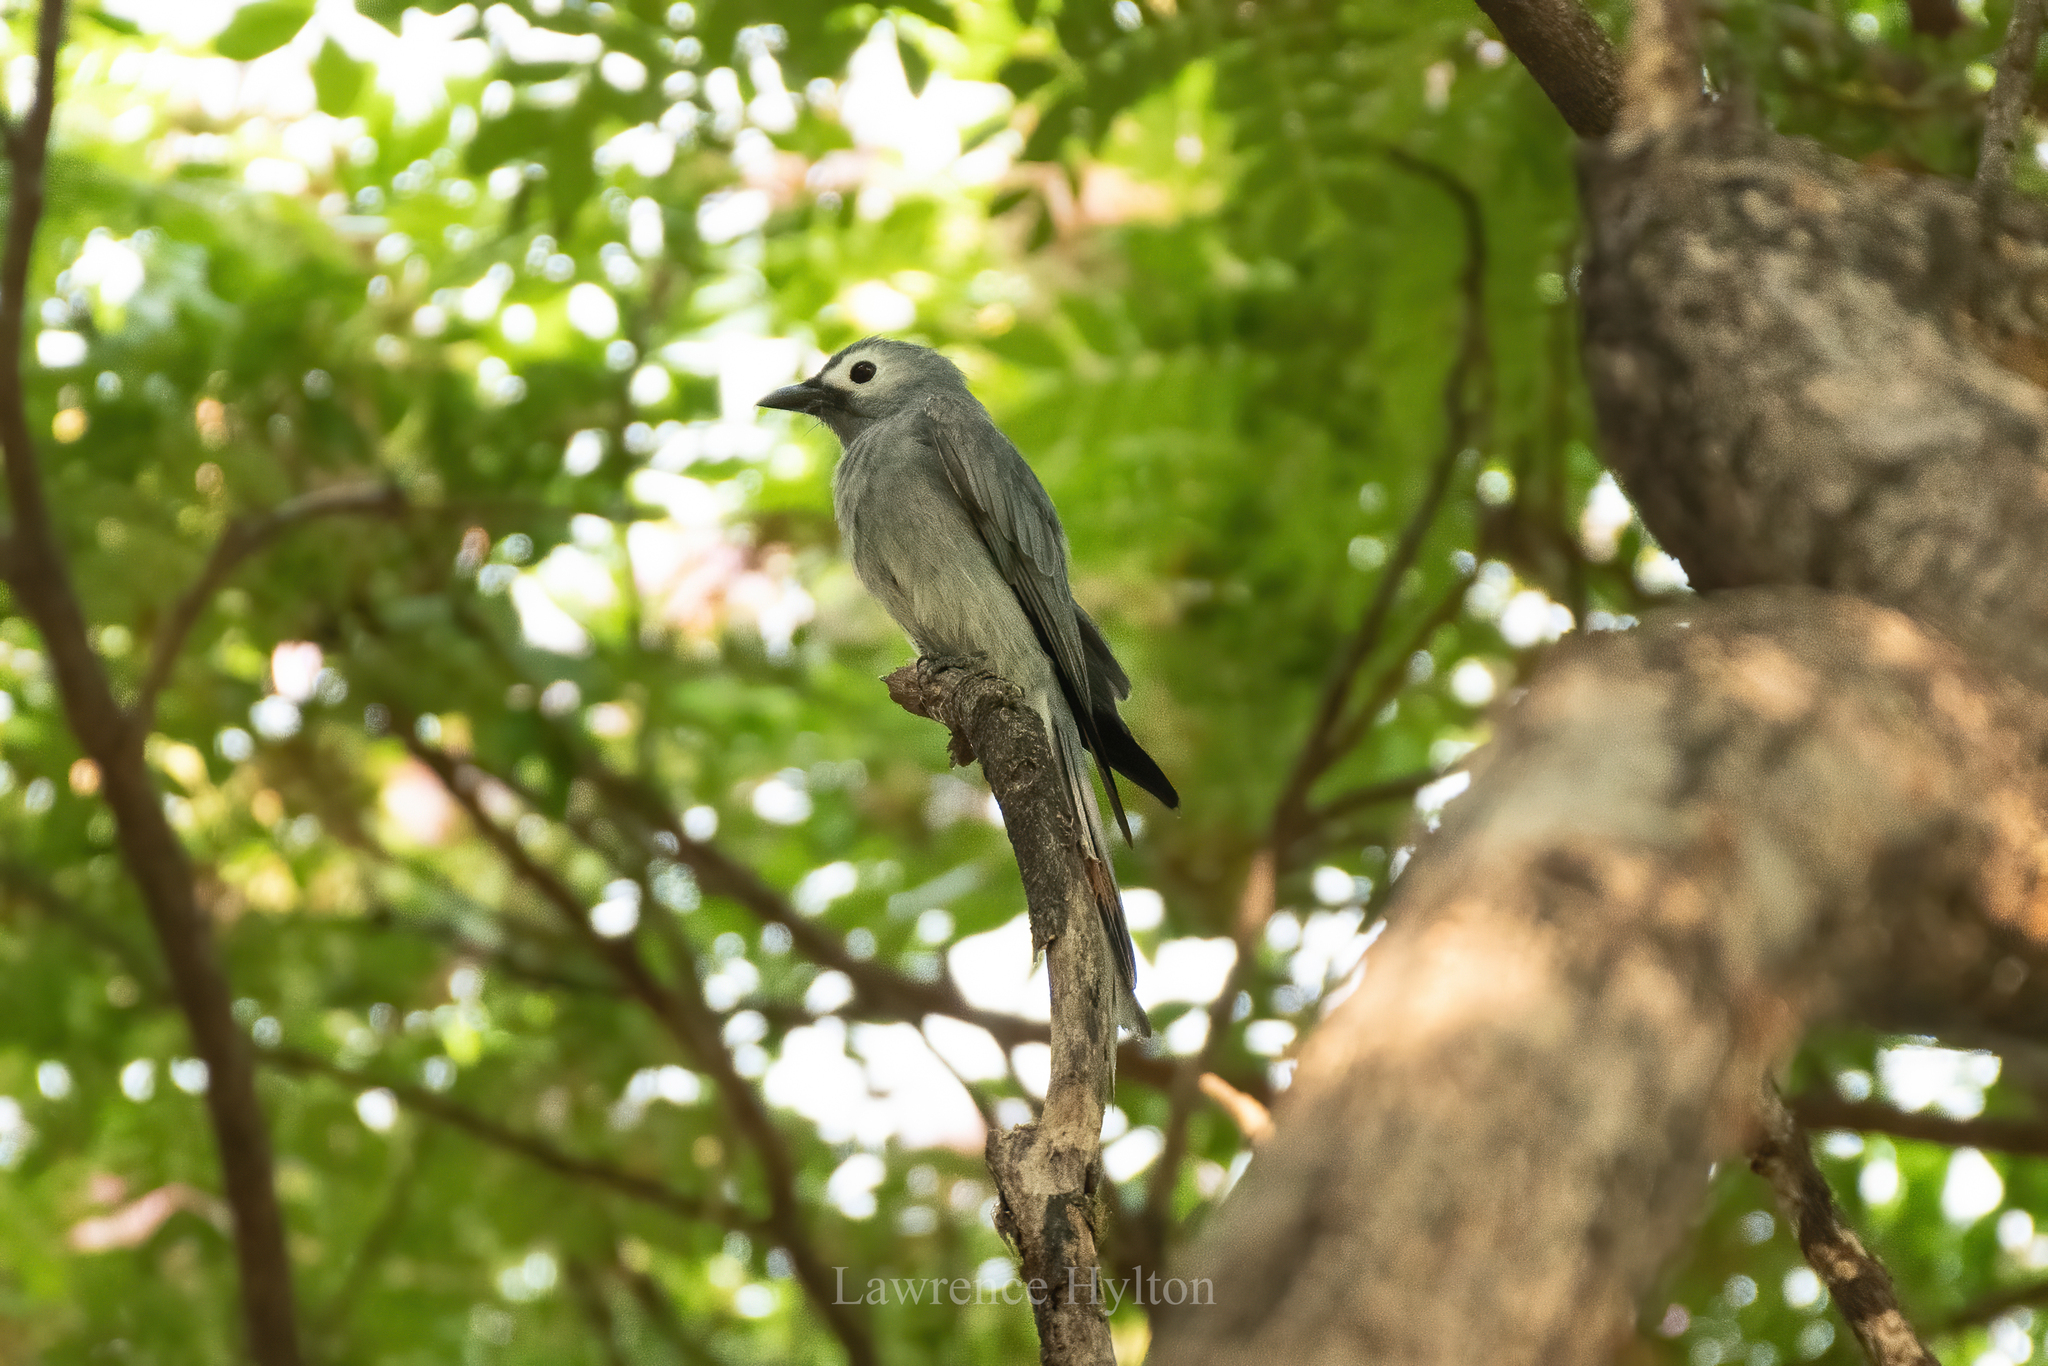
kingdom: Animalia
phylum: Chordata
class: Aves
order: Passeriformes
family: Dicruridae
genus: Dicrurus
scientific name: Dicrurus leucophaeus
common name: Ashy drongo
